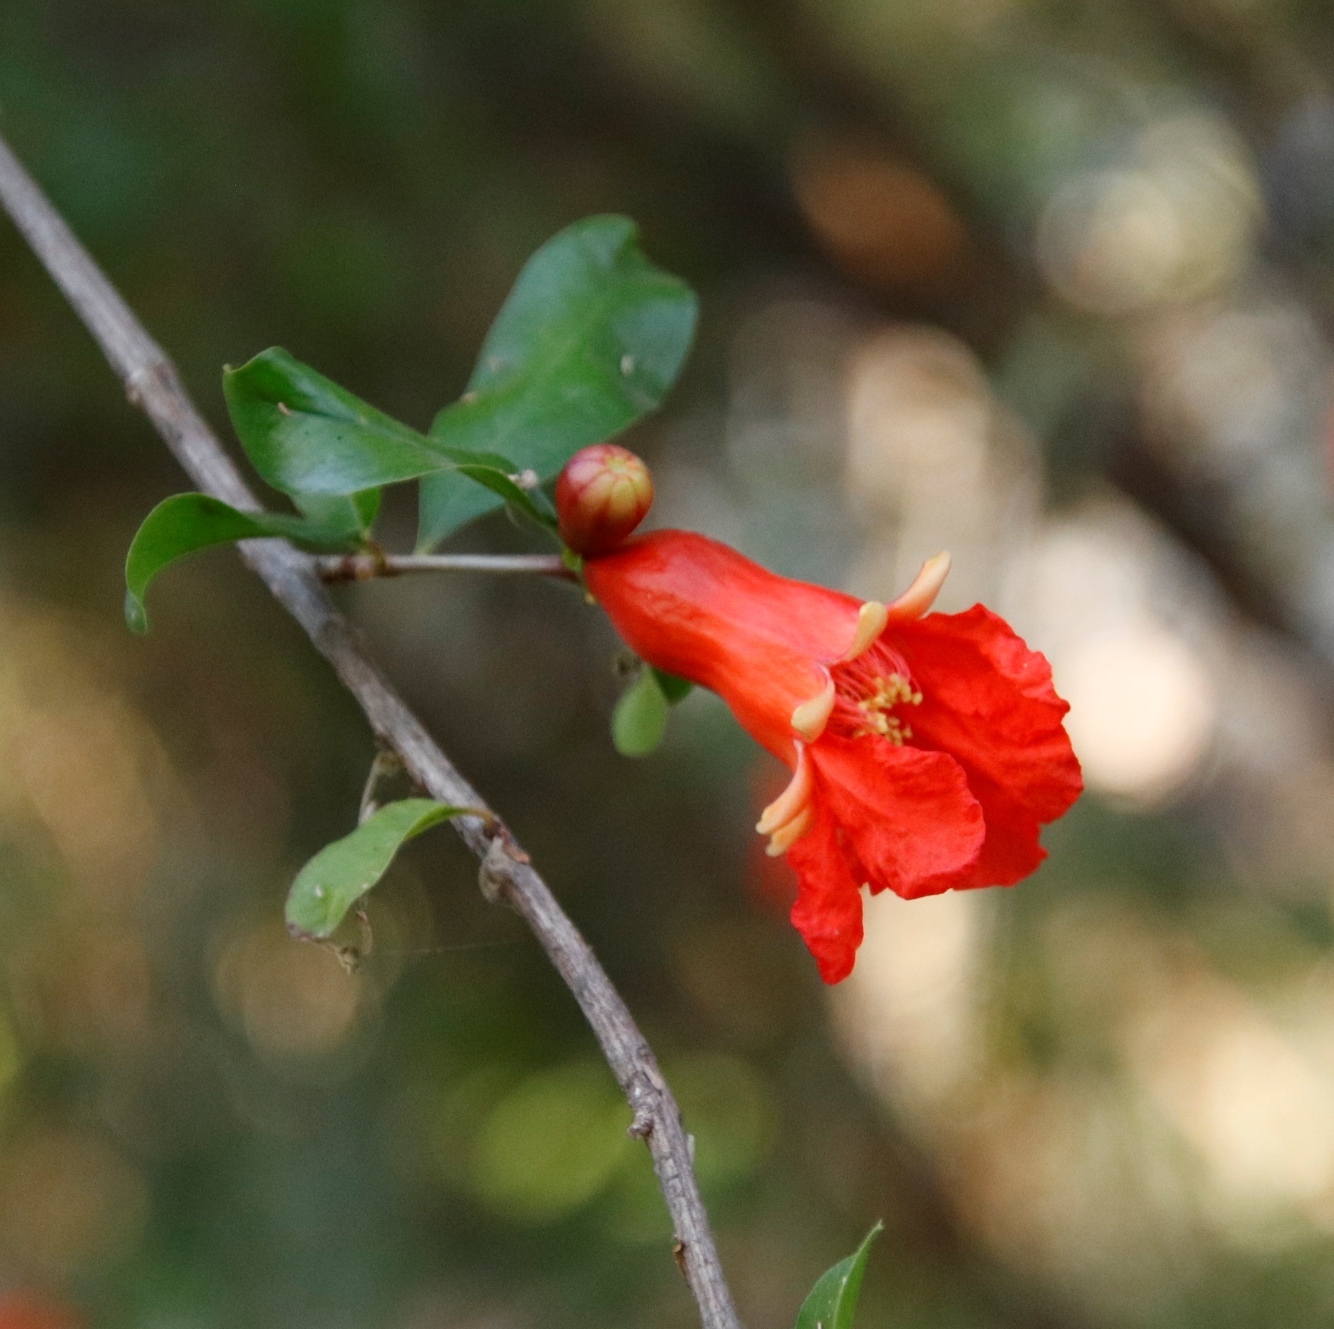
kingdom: Plantae
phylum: Tracheophyta
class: Magnoliopsida
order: Gentianales
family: Rubiaceae
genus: Burchellia
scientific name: Burchellia bubalina
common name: Wild pomegranate
